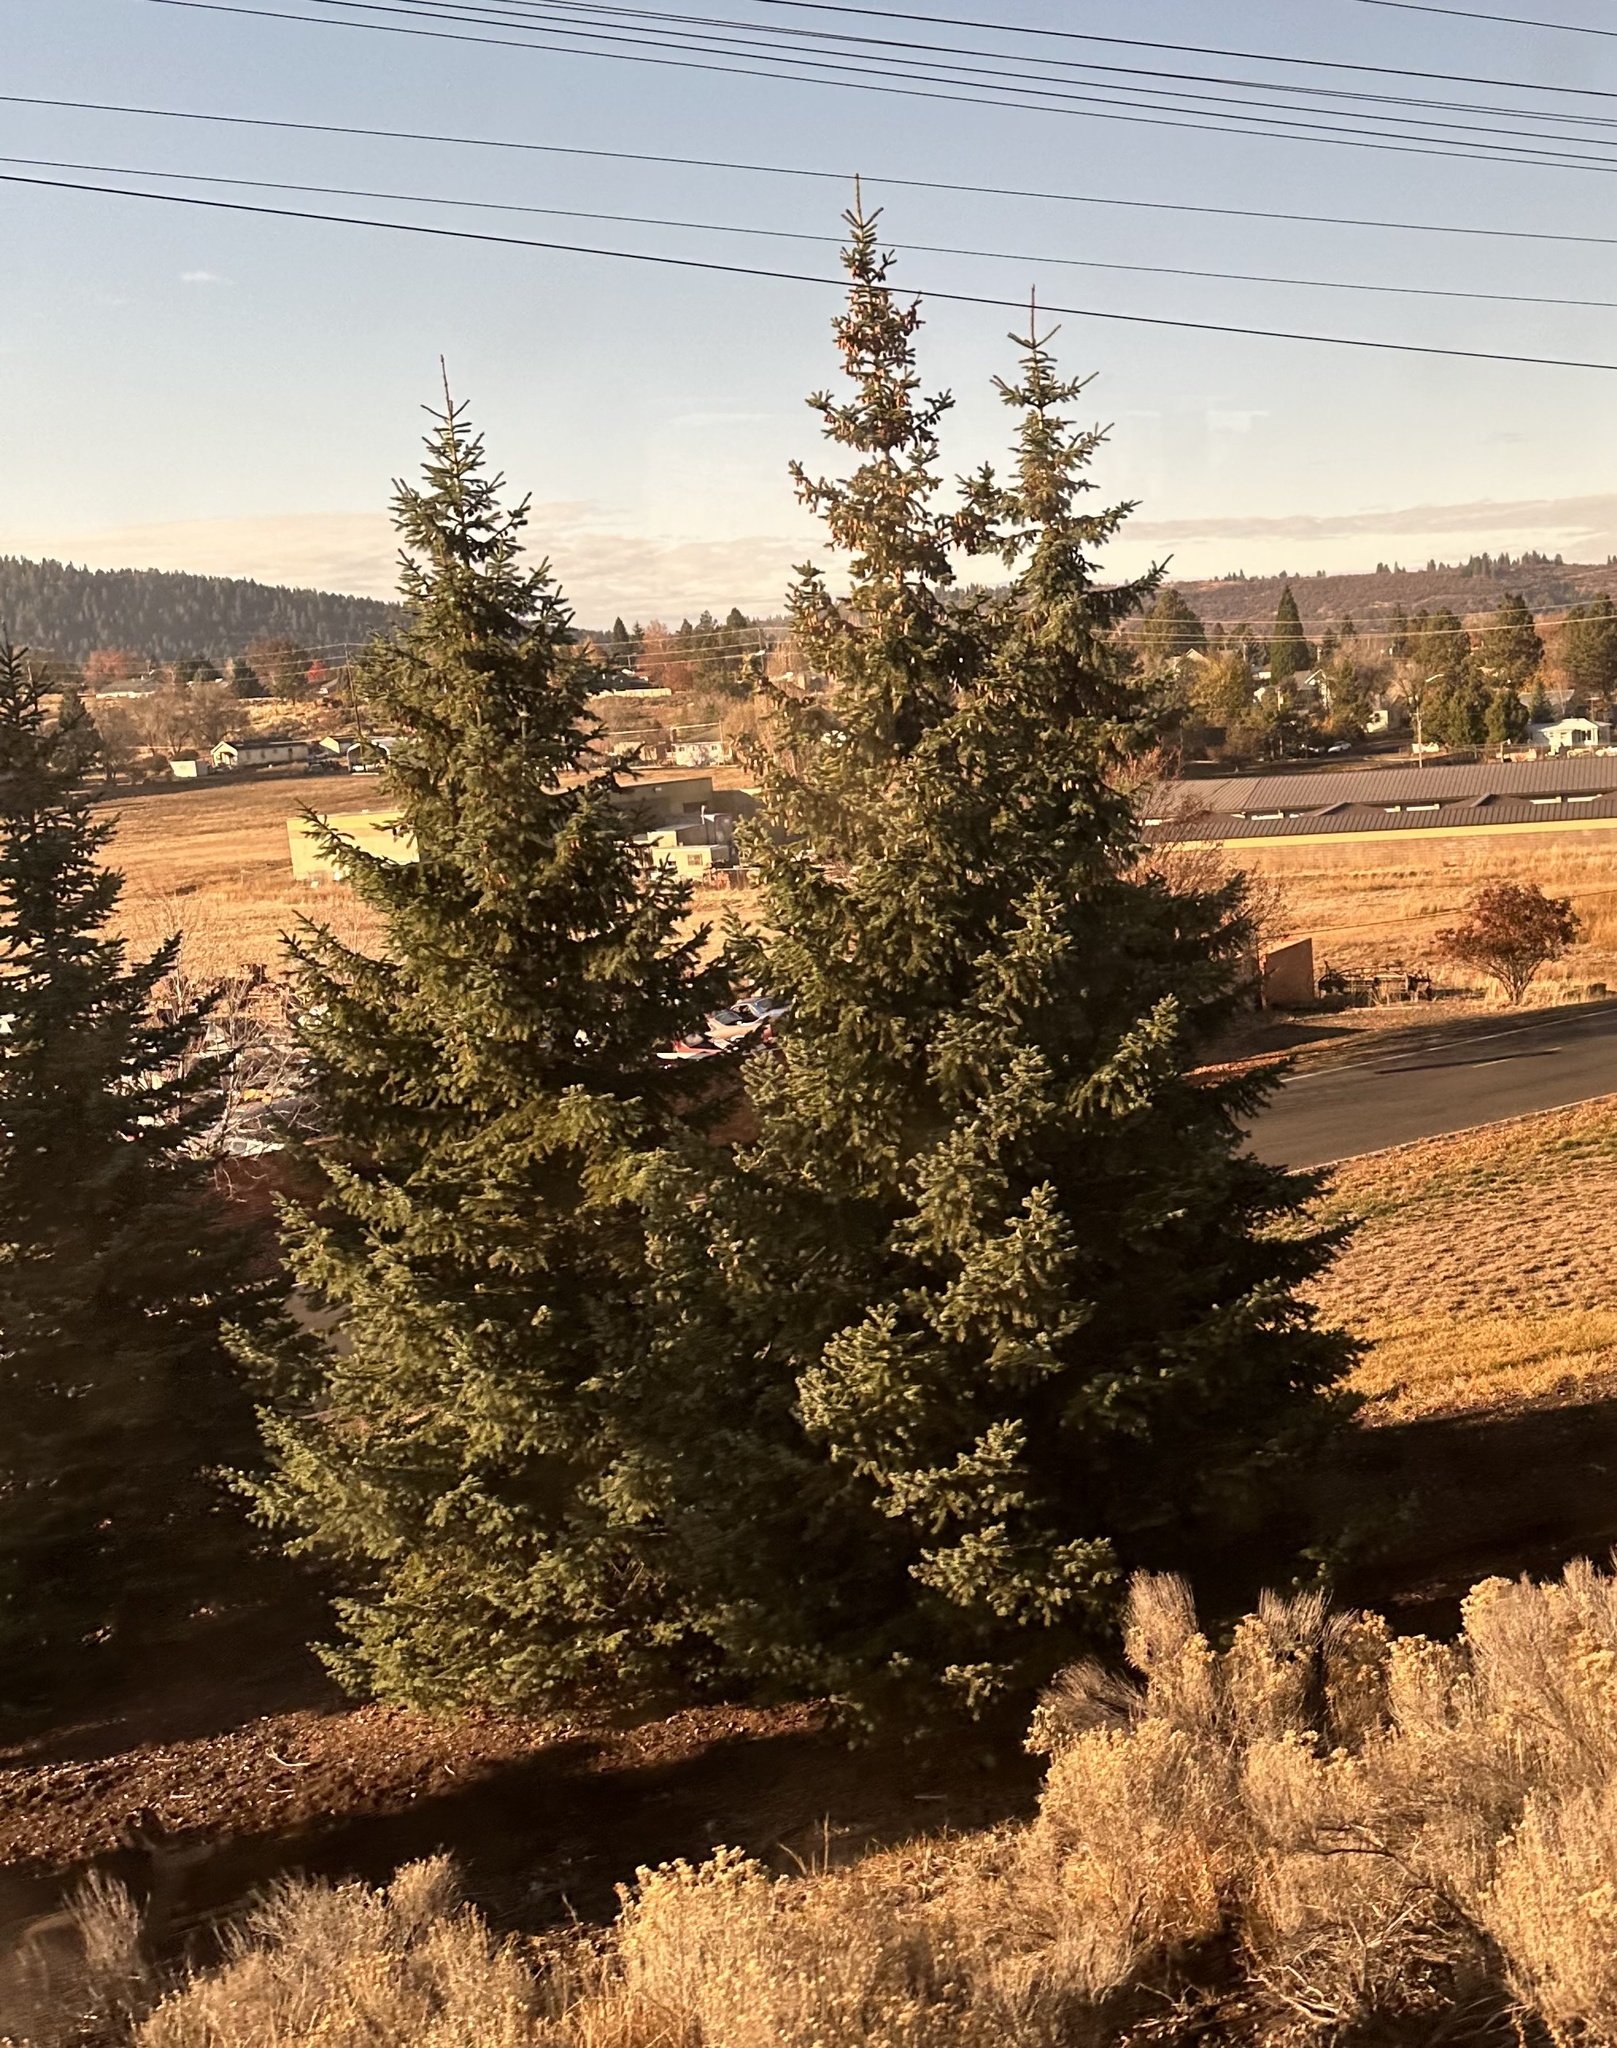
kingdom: Plantae
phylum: Tracheophyta
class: Pinopsida
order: Pinales
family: Pinaceae
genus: Pseudotsuga
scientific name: Pseudotsuga menziesii
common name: Douglas fir
